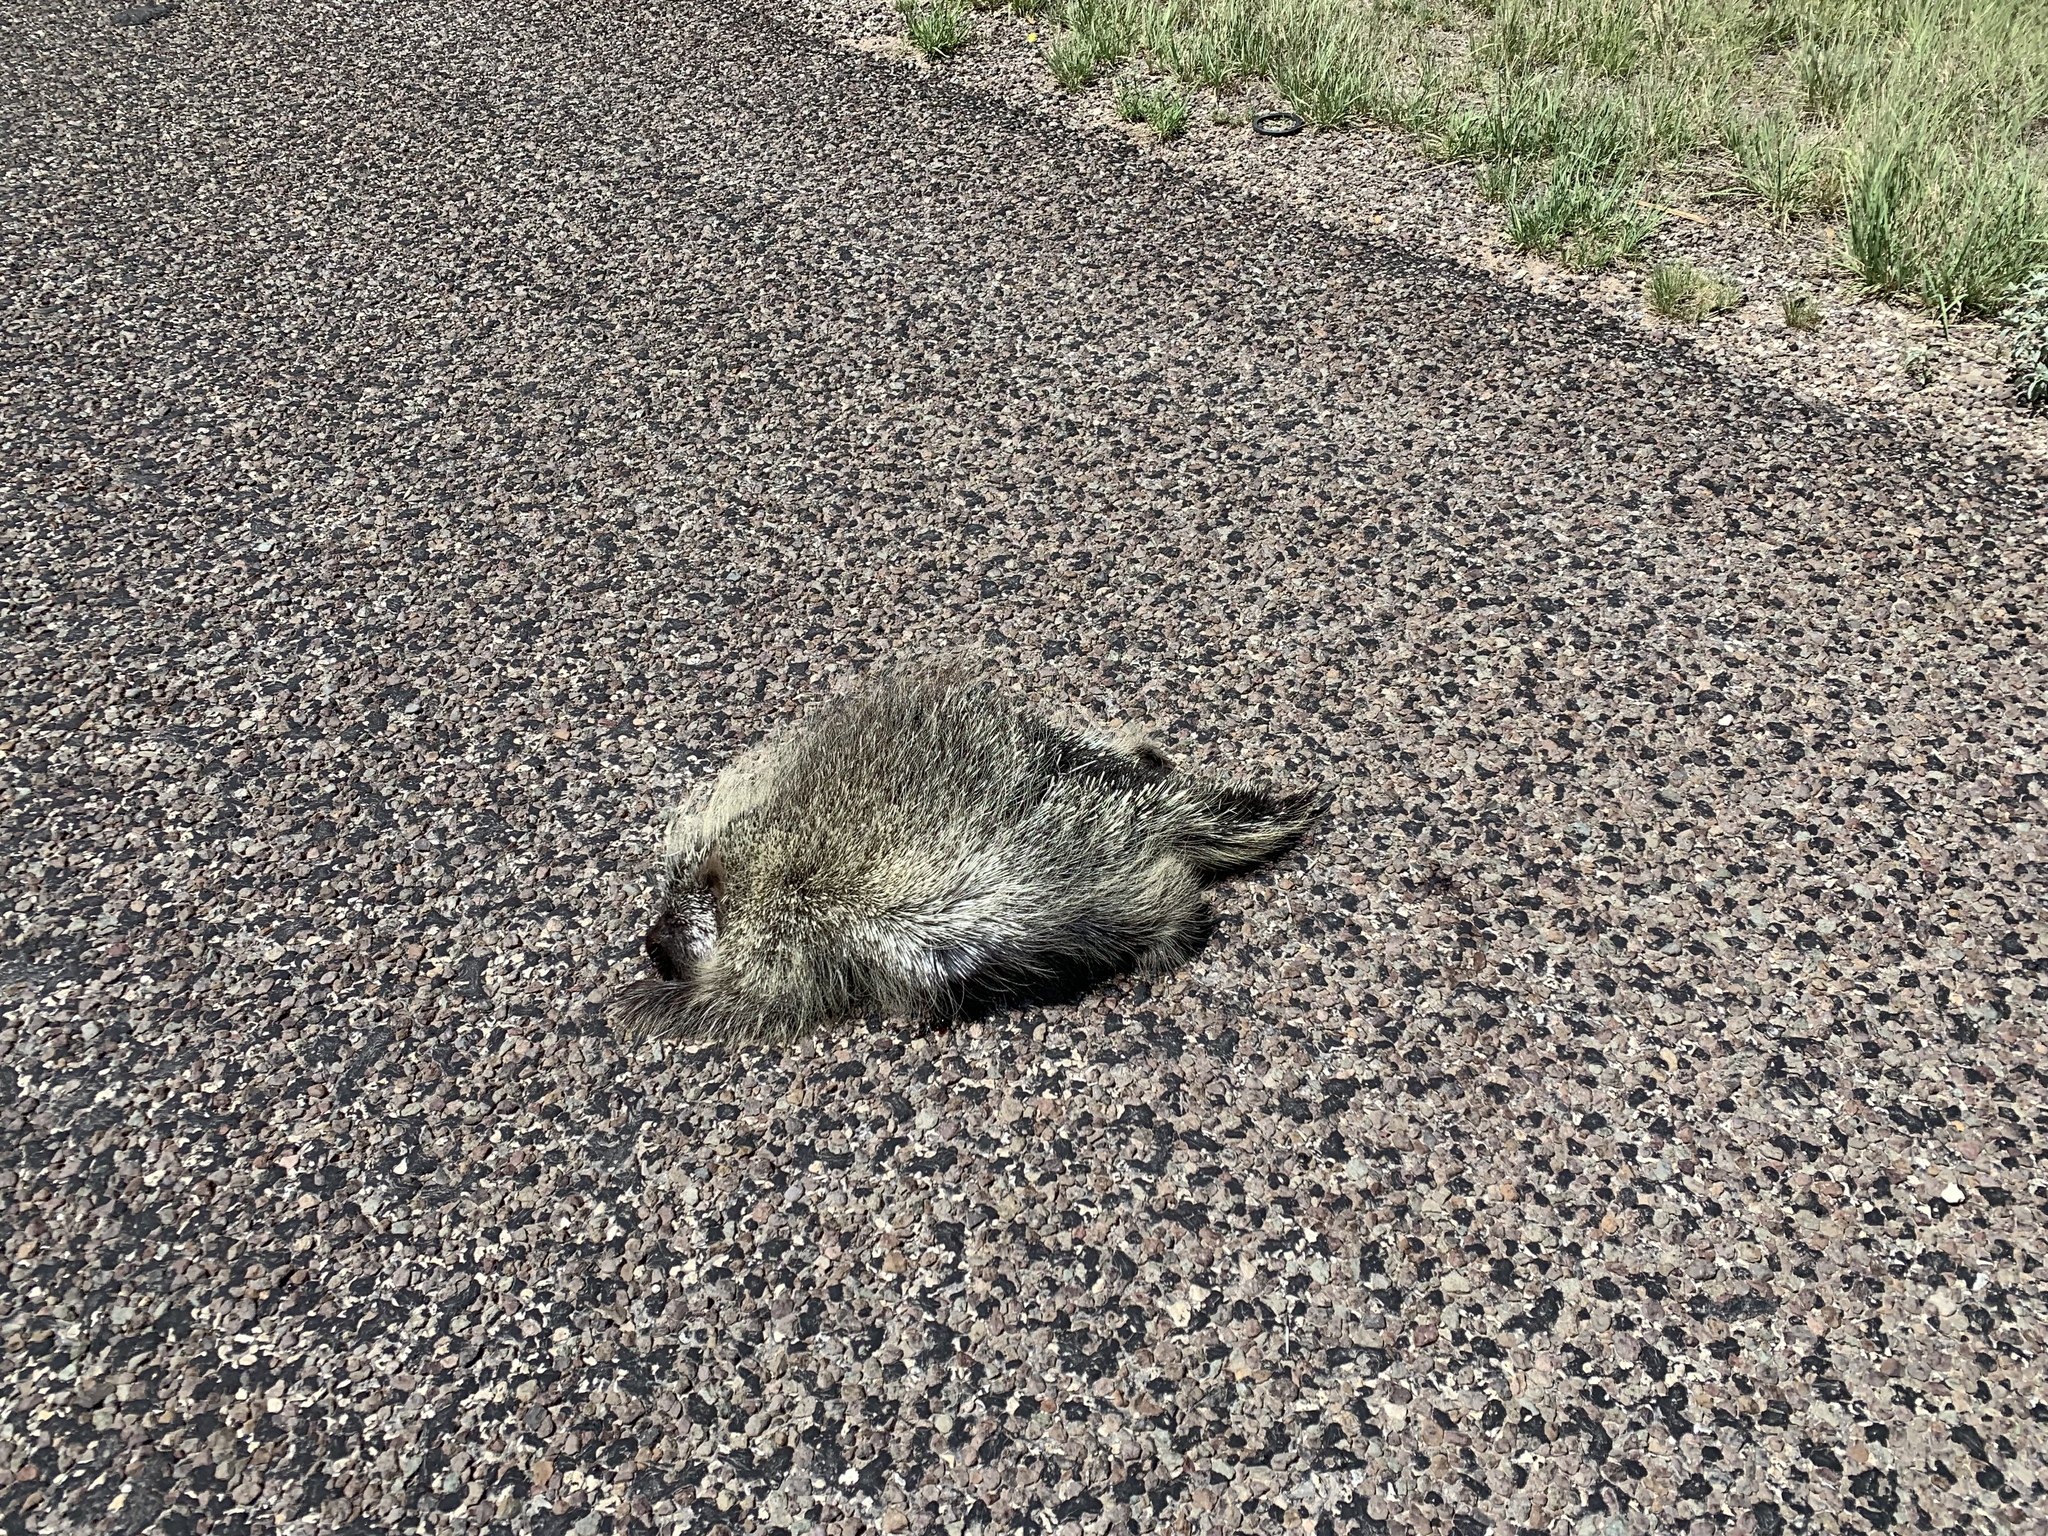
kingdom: Animalia
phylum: Chordata
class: Mammalia
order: Rodentia
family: Erethizontidae
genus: Erethizon
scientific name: Erethizon dorsatus
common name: North american porcupine
